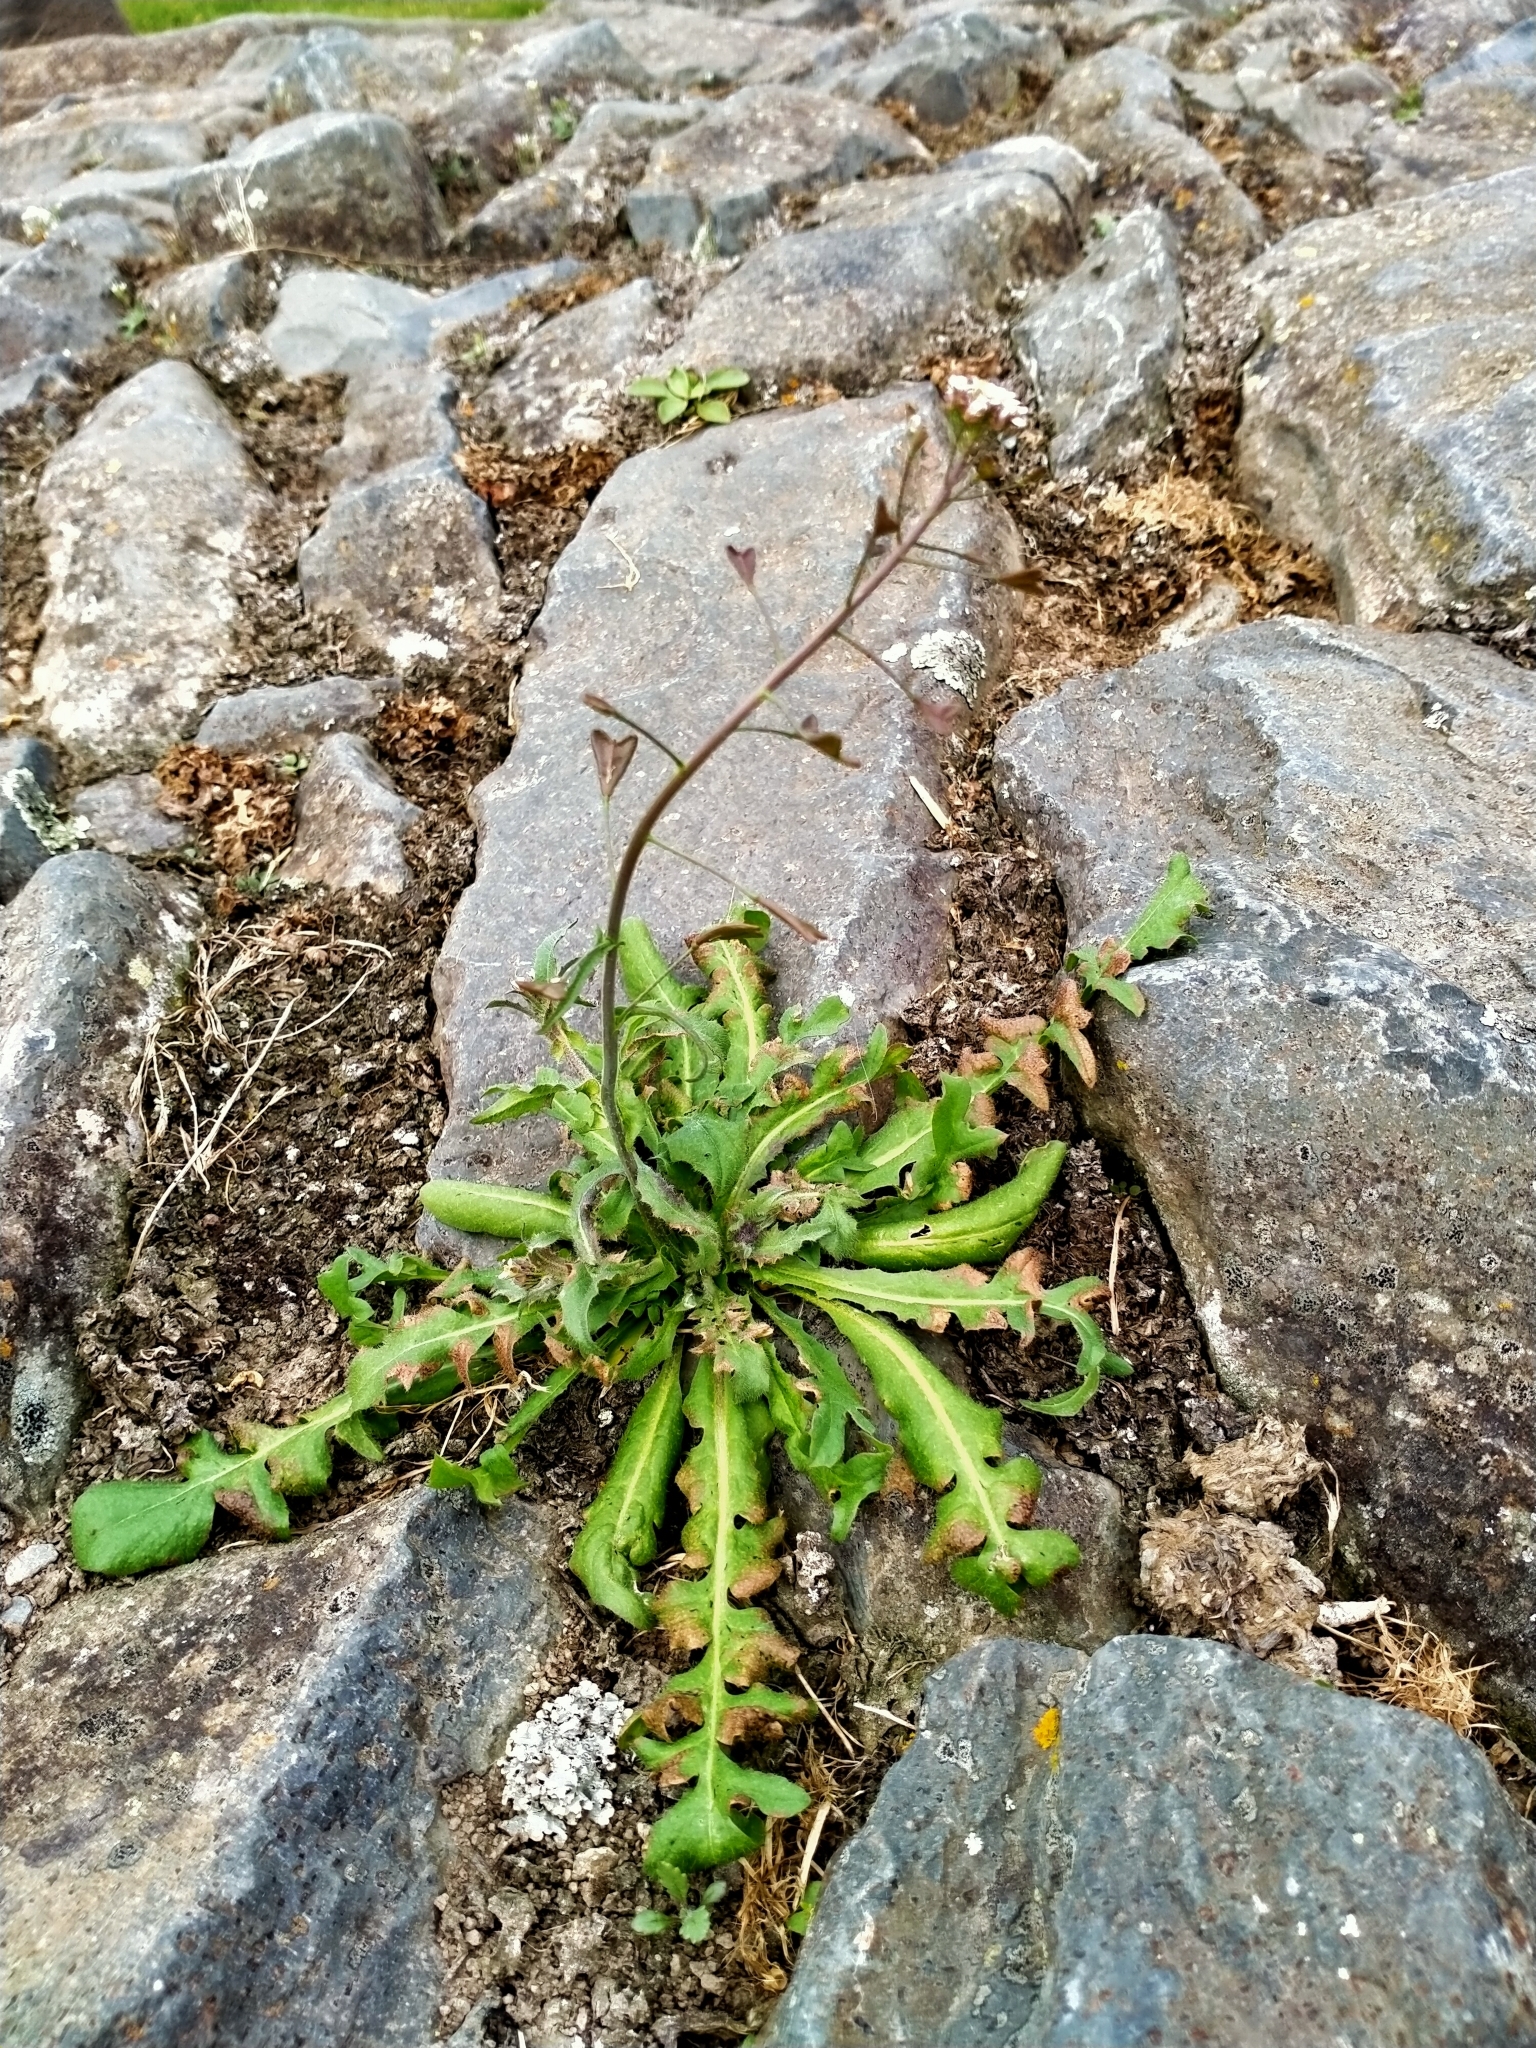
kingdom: Plantae
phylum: Tracheophyta
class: Magnoliopsida
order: Brassicales
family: Brassicaceae
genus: Capsella
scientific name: Capsella bursa-pastoris
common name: Shepherd's purse
